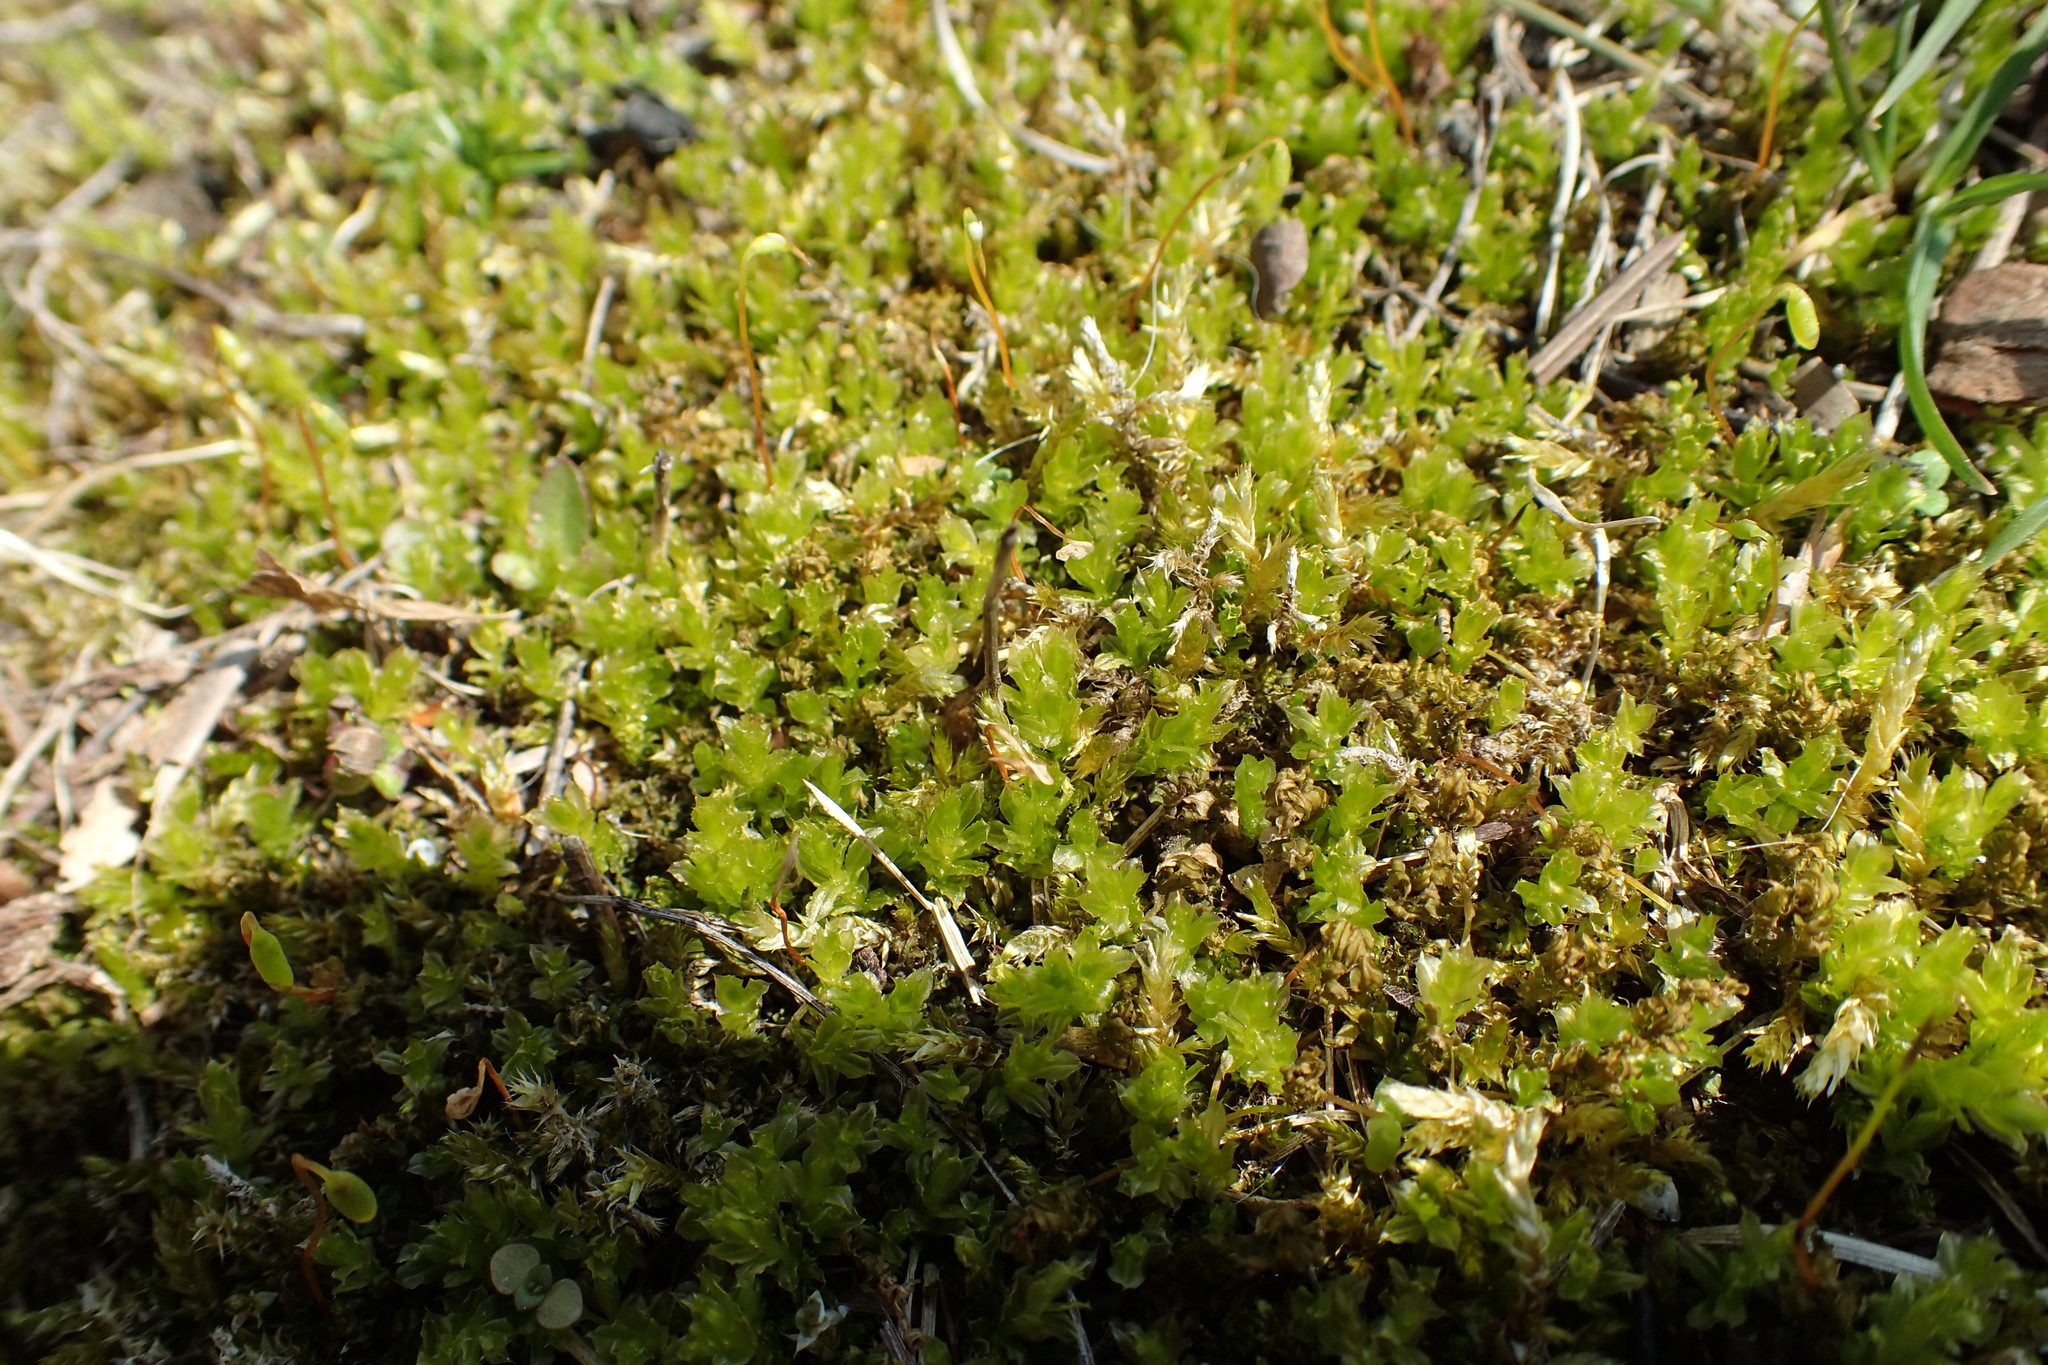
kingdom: Plantae
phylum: Bryophyta
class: Bryopsida
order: Bryales
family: Mniaceae
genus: Plagiomnium
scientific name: Plagiomnium cuspidatum
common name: Woodsy leafy moss
